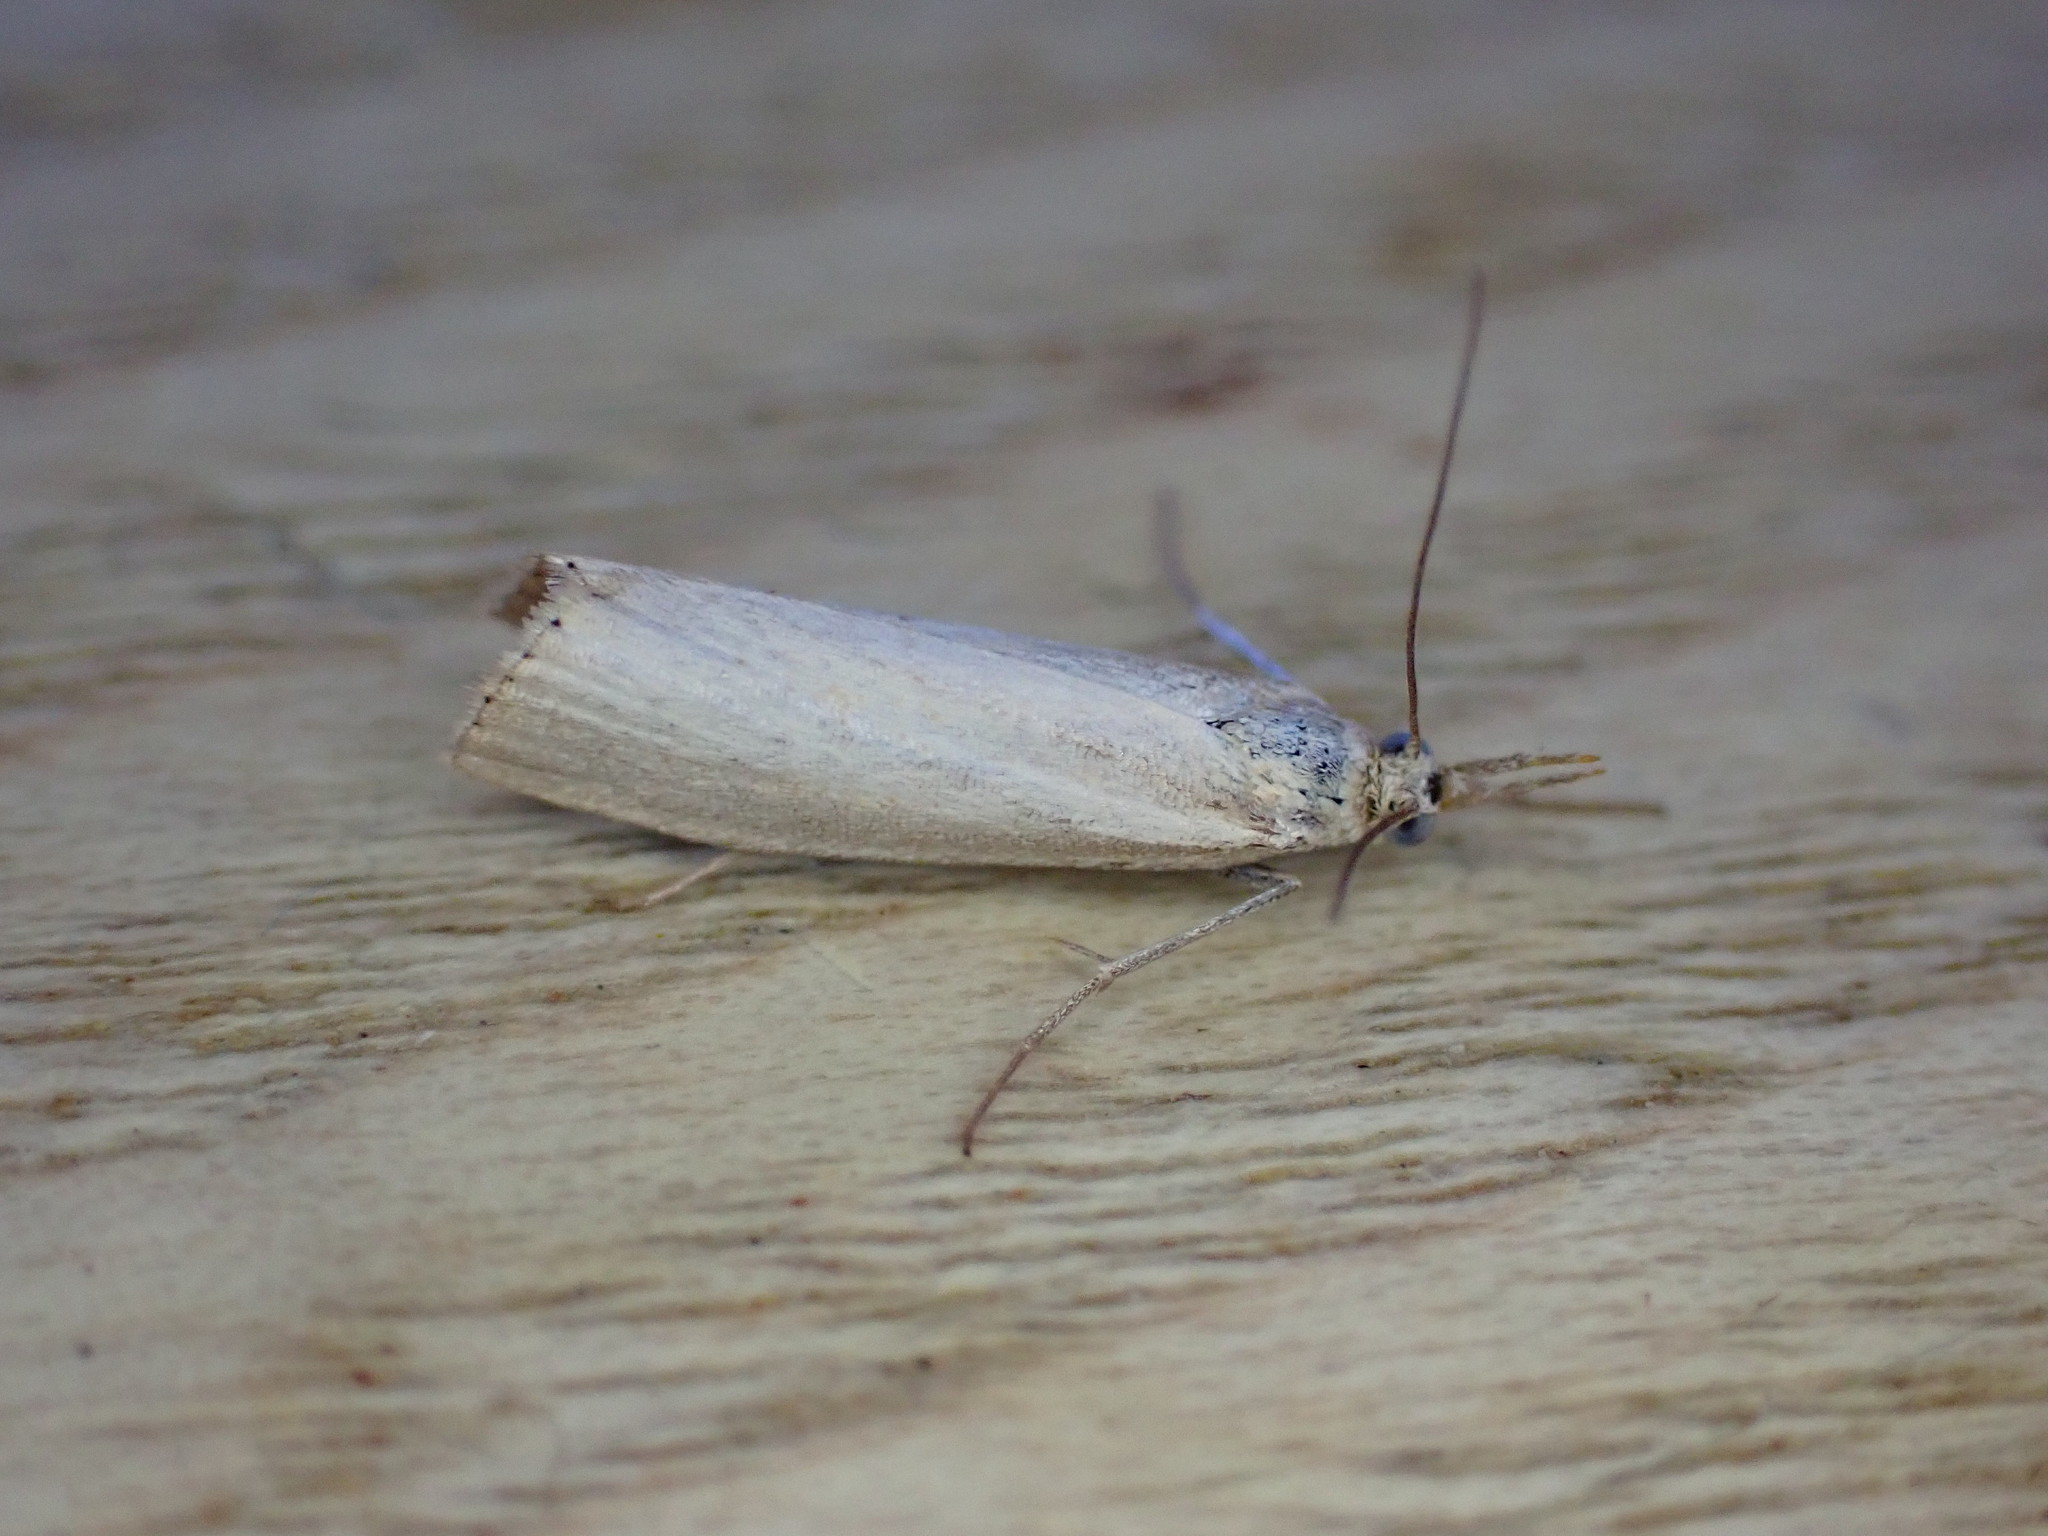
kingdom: Animalia
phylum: Arthropoda
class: Insecta
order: Lepidoptera
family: Crambidae
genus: Agriphila
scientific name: Agriphila straminella
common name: Straw grass-veneer
